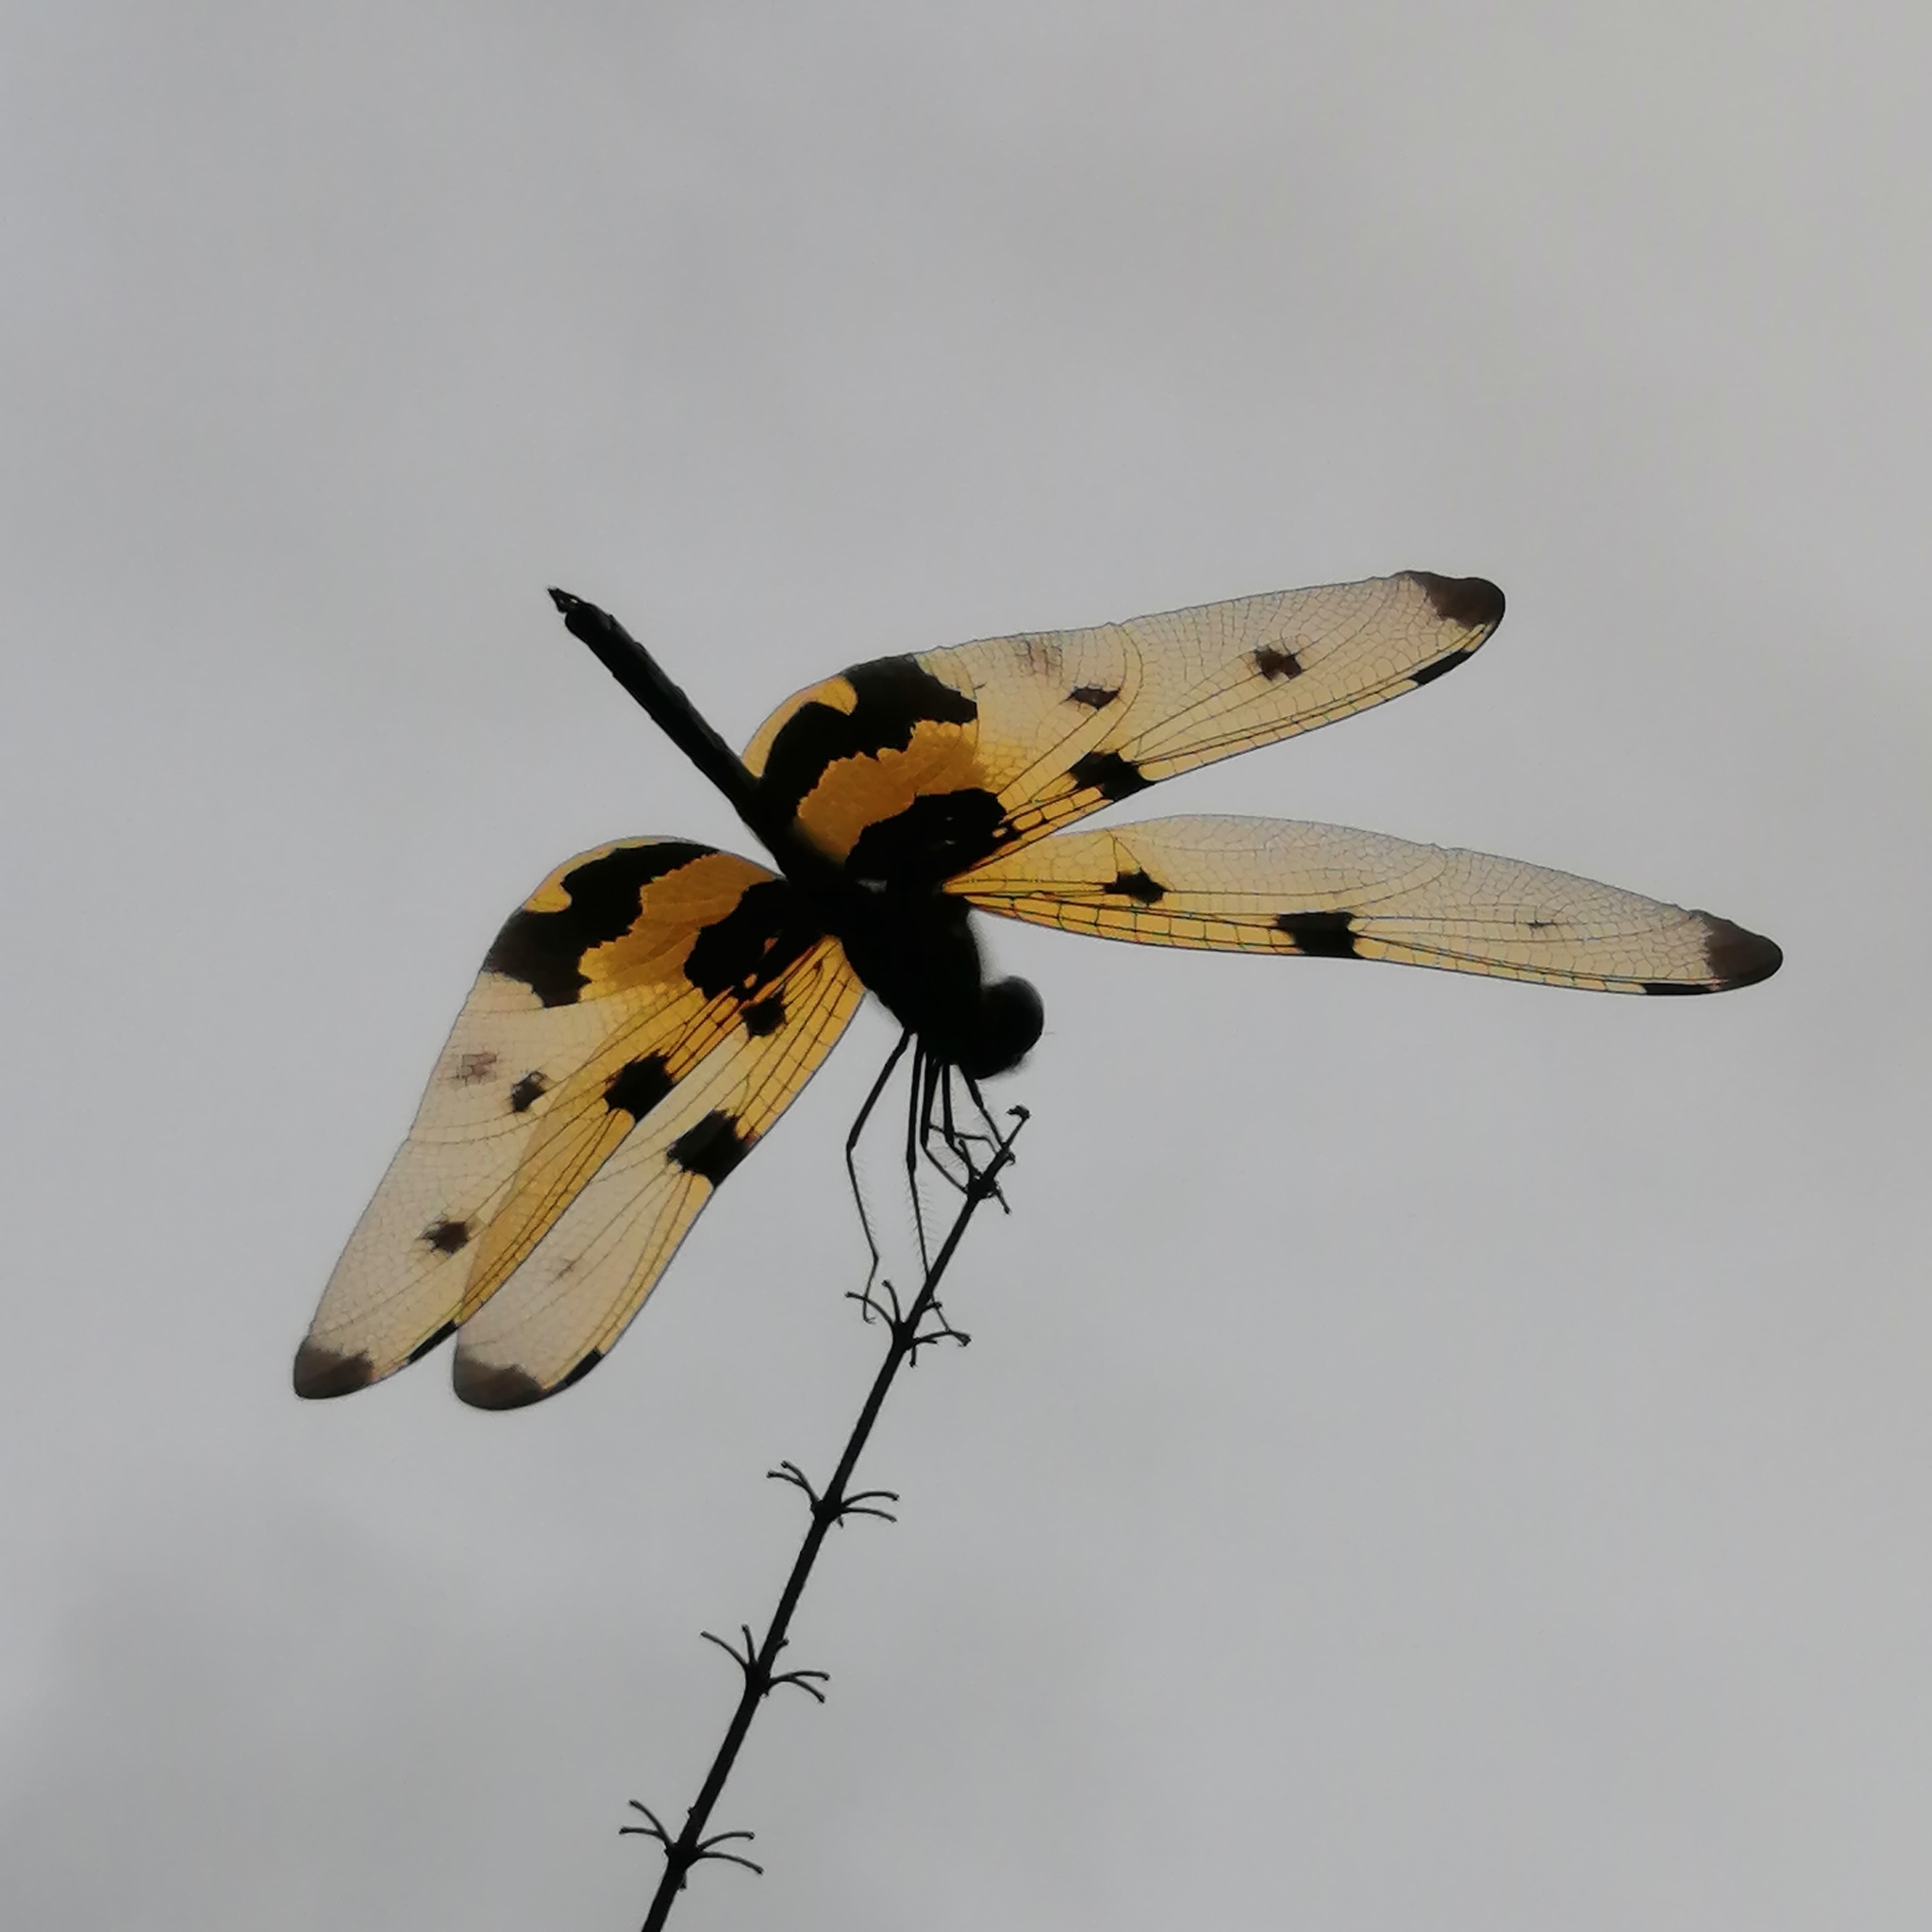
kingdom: Animalia
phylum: Arthropoda
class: Insecta
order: Odonata
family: Libellulidae
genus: Rhyothemis
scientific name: Rhyothemis variegata
